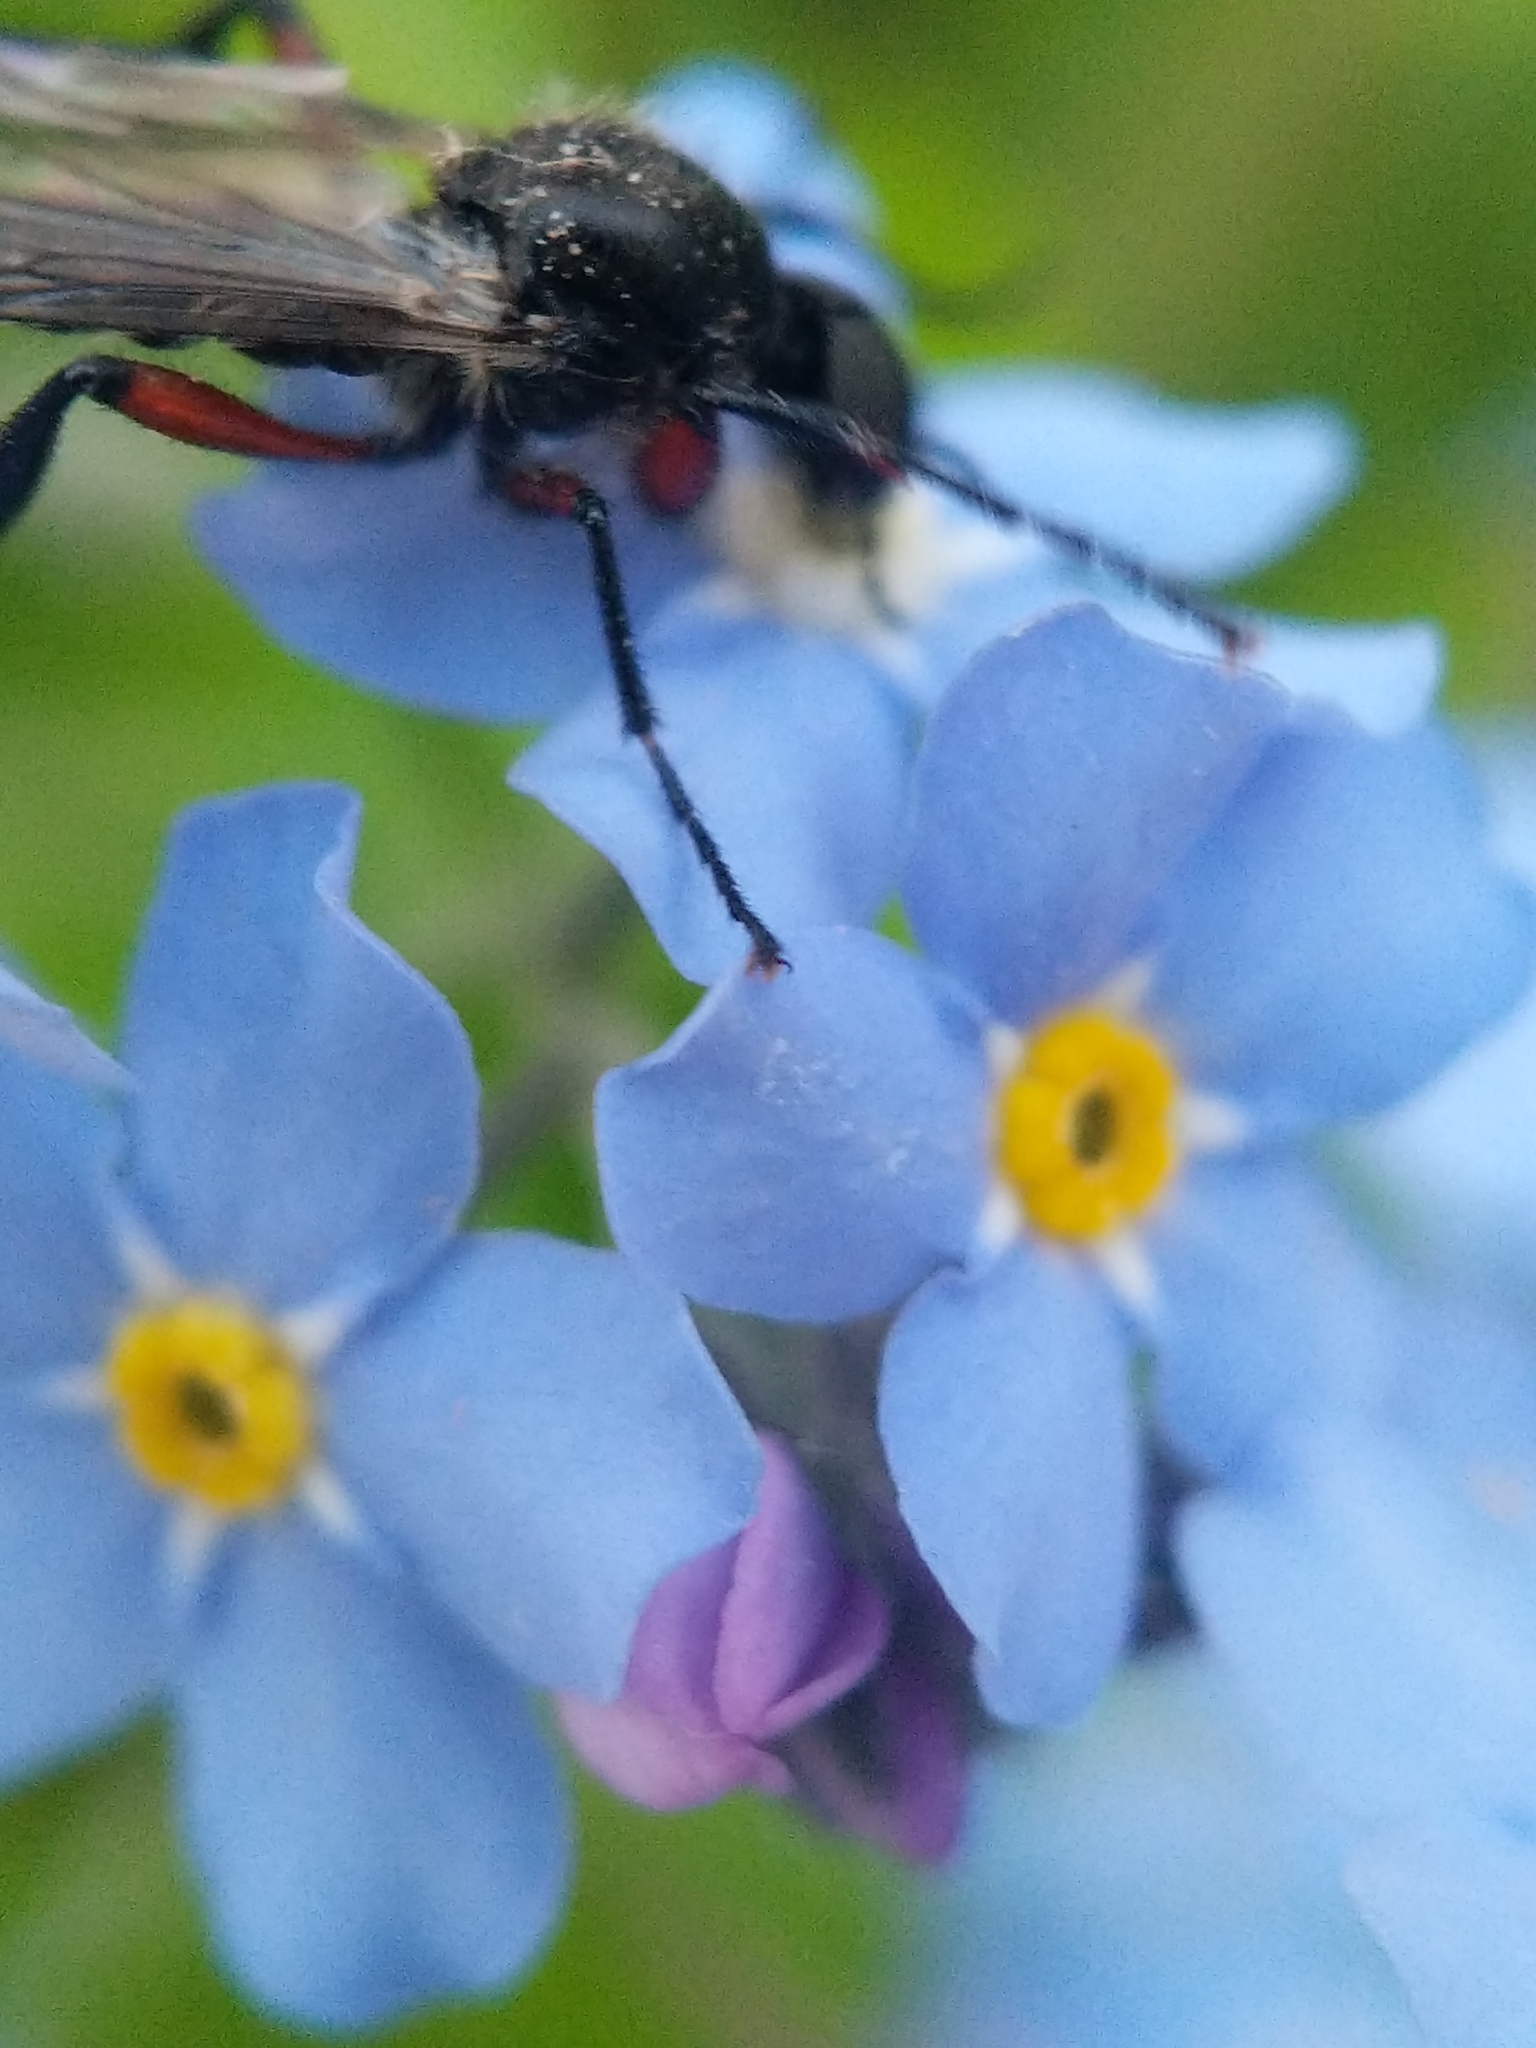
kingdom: Animalia
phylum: Arthropoda
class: Insecta
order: Diptera
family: Bibionidae
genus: Bibio
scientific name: Bibio femoratus
